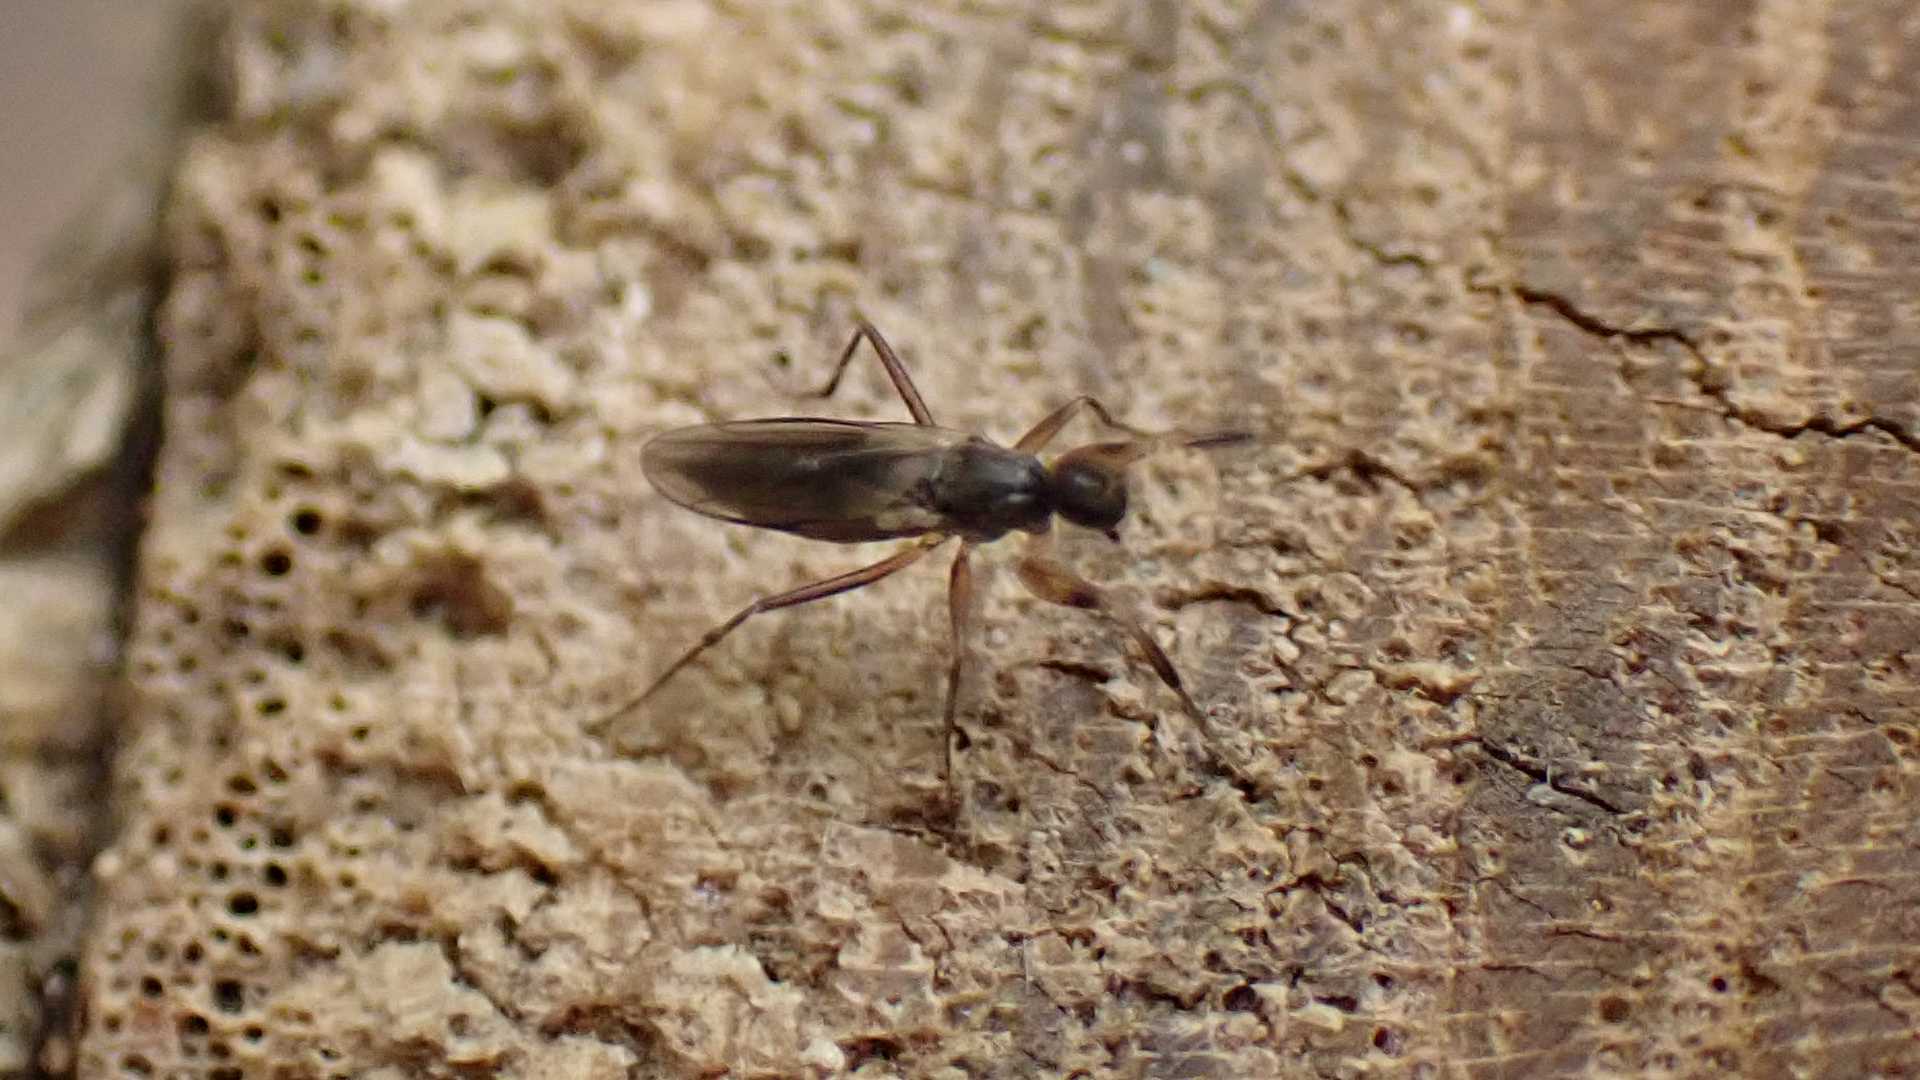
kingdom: Animalia
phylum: Arthropoda
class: Insecta
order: Diptera
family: Hybotidae
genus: Tachypeza
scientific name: Tachypeza nubila
